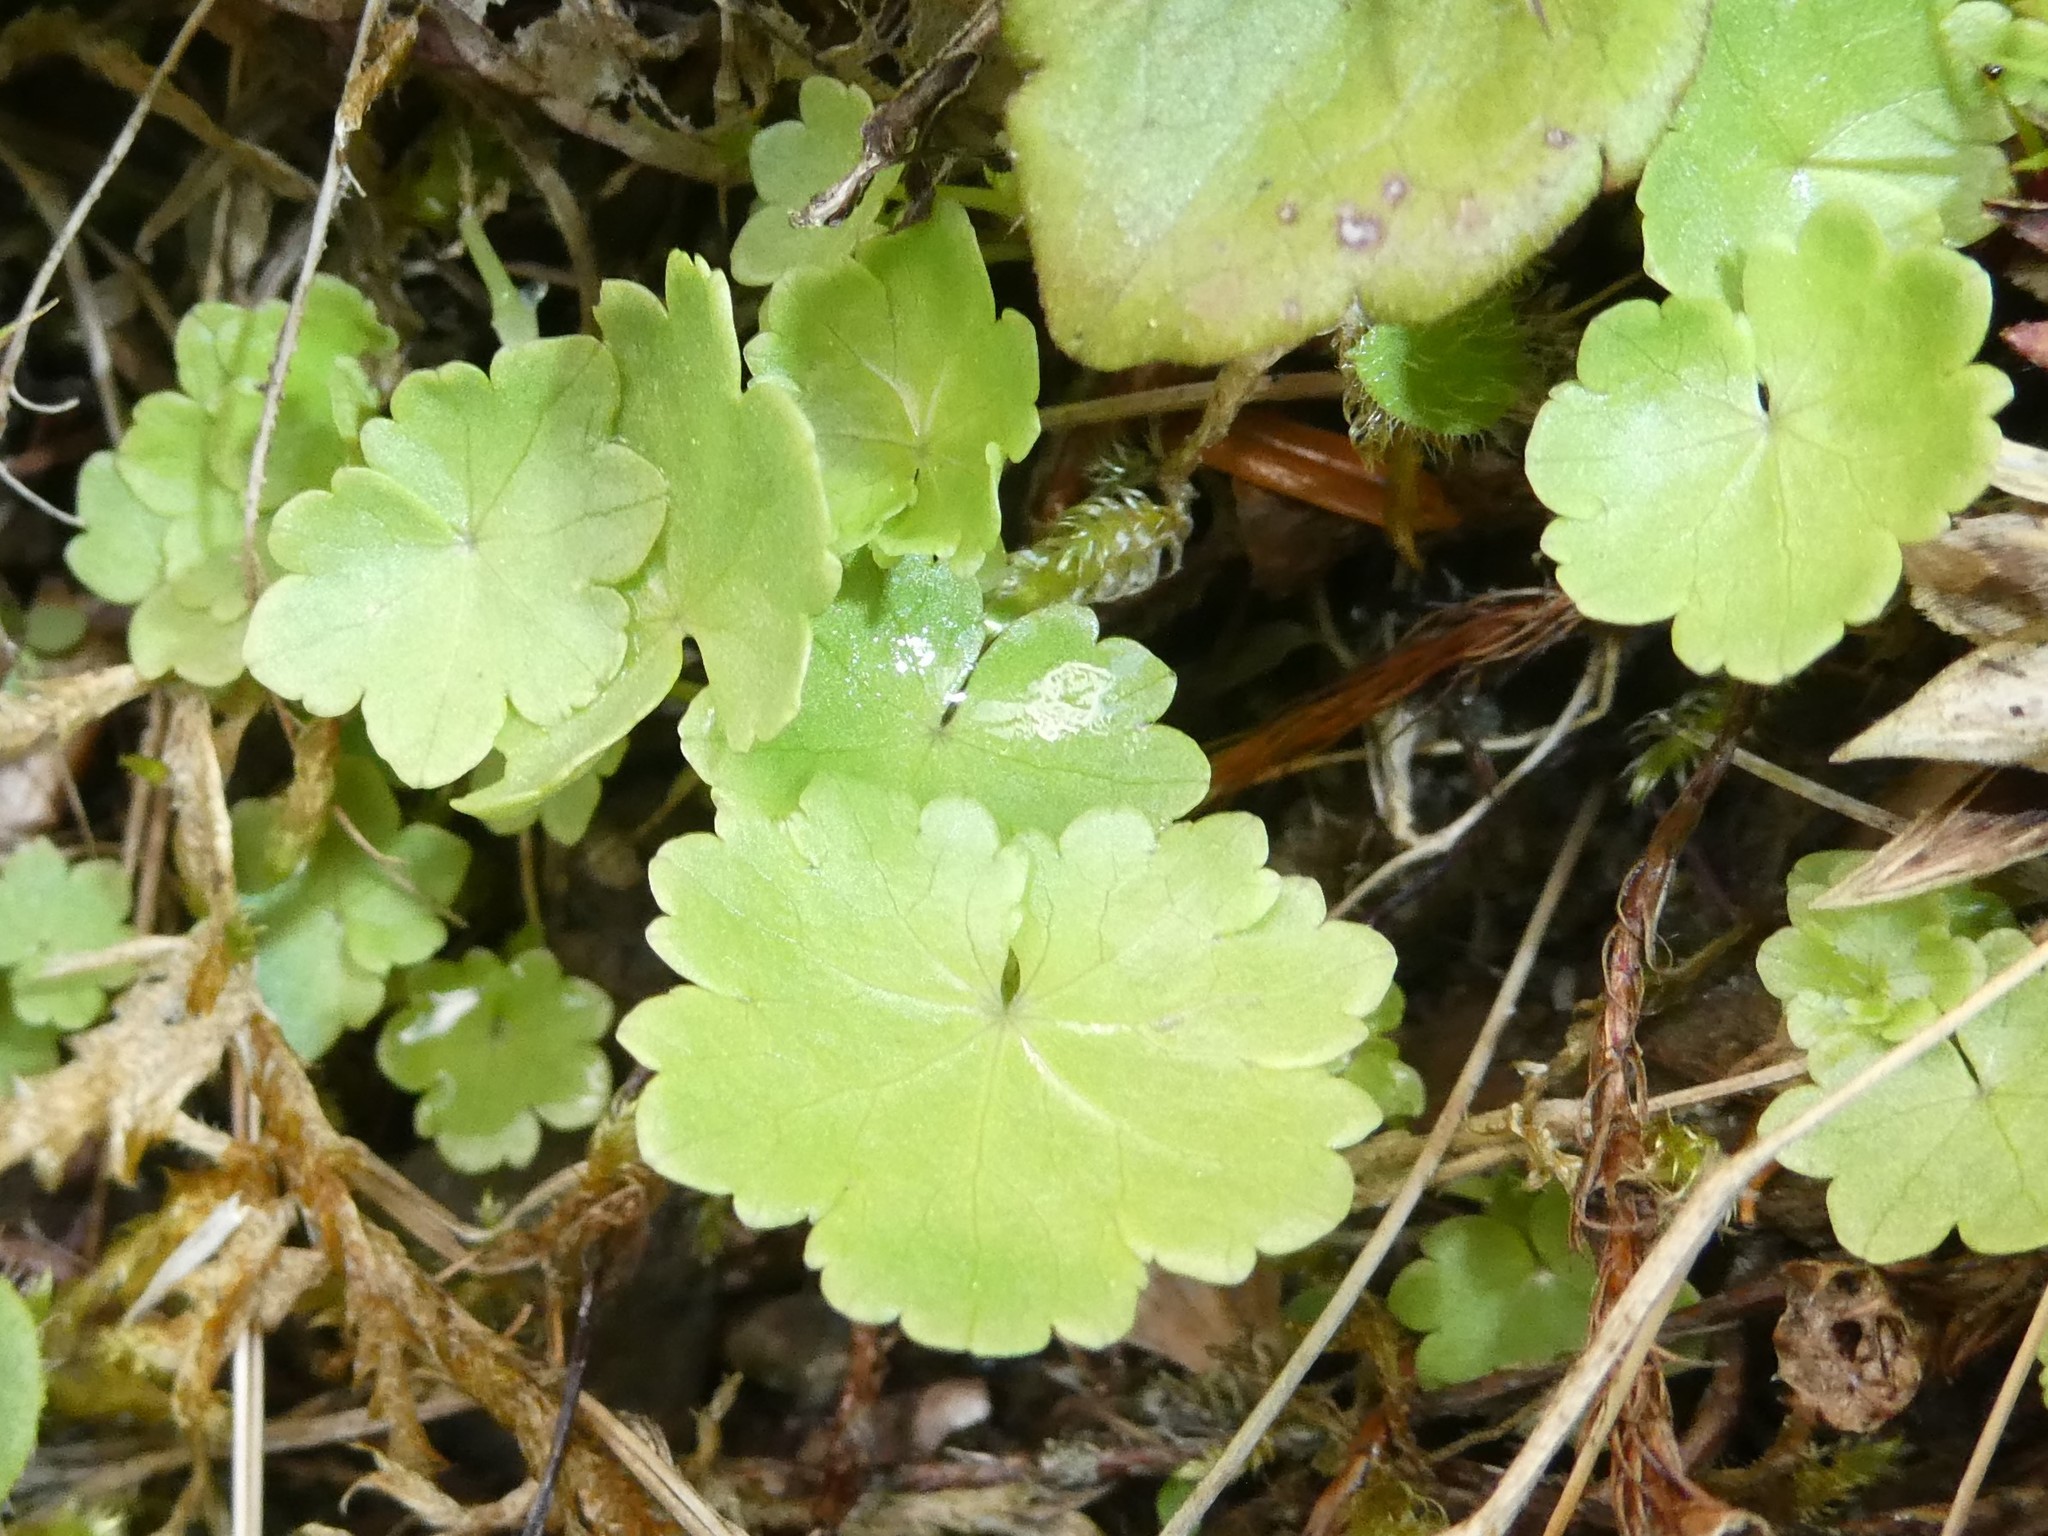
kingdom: Plantae
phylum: Tracheophyta
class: Magnoliopsida
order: Apiales
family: Araliaceae
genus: Hydrocotyle
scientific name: Hydrocotyle americana
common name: American water-pennywort
